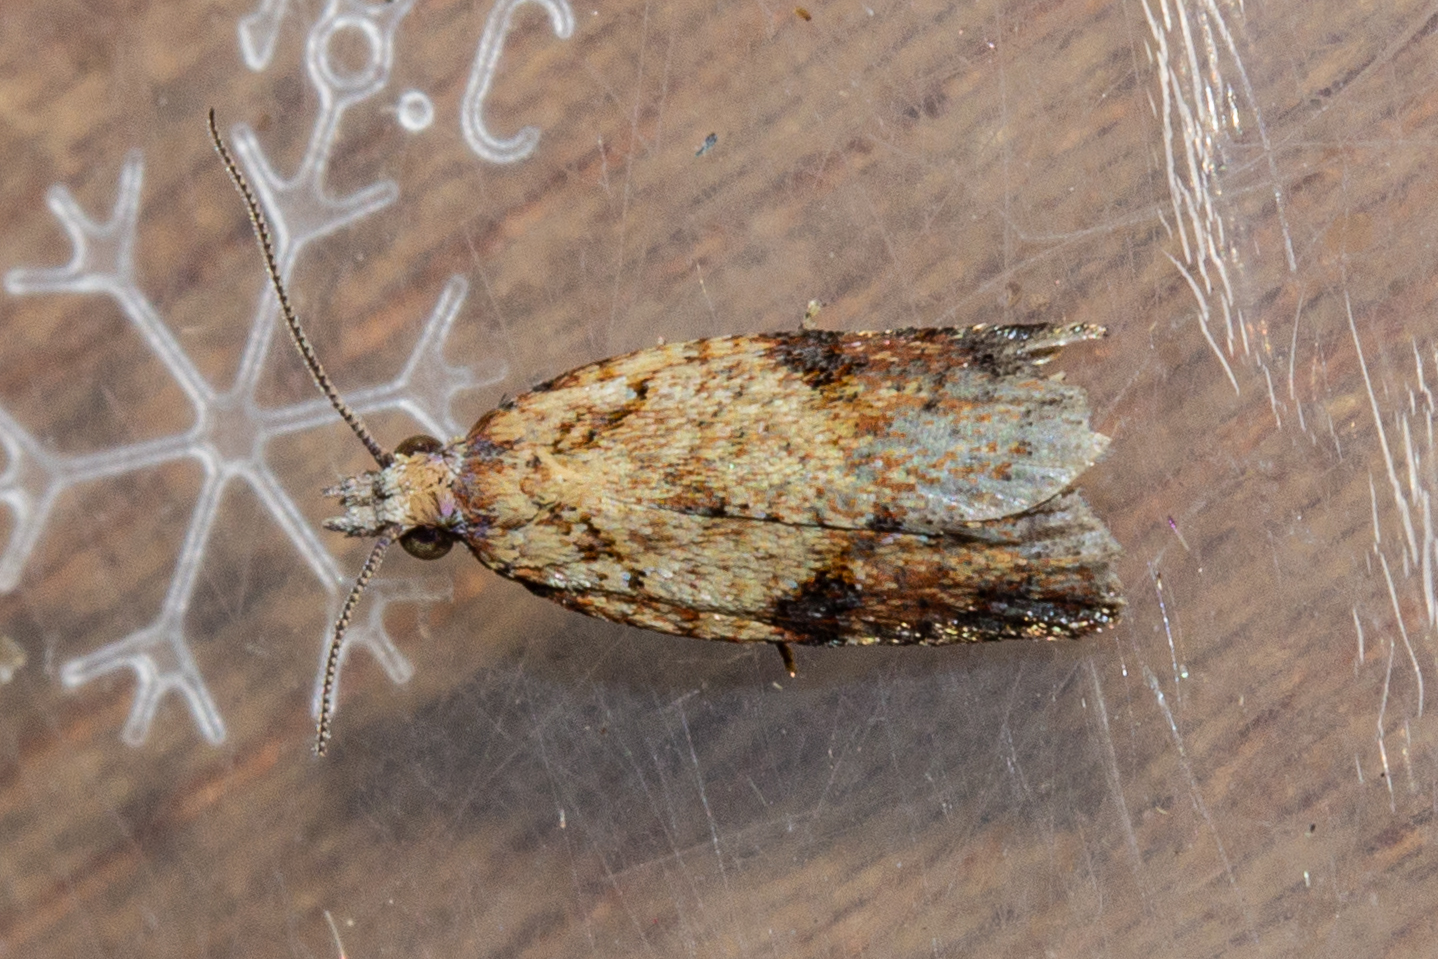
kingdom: Animalia
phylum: Arthropoda
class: Insecta
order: Lepidoptera
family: Tortricidae
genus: Capua
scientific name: Capua semiferana
